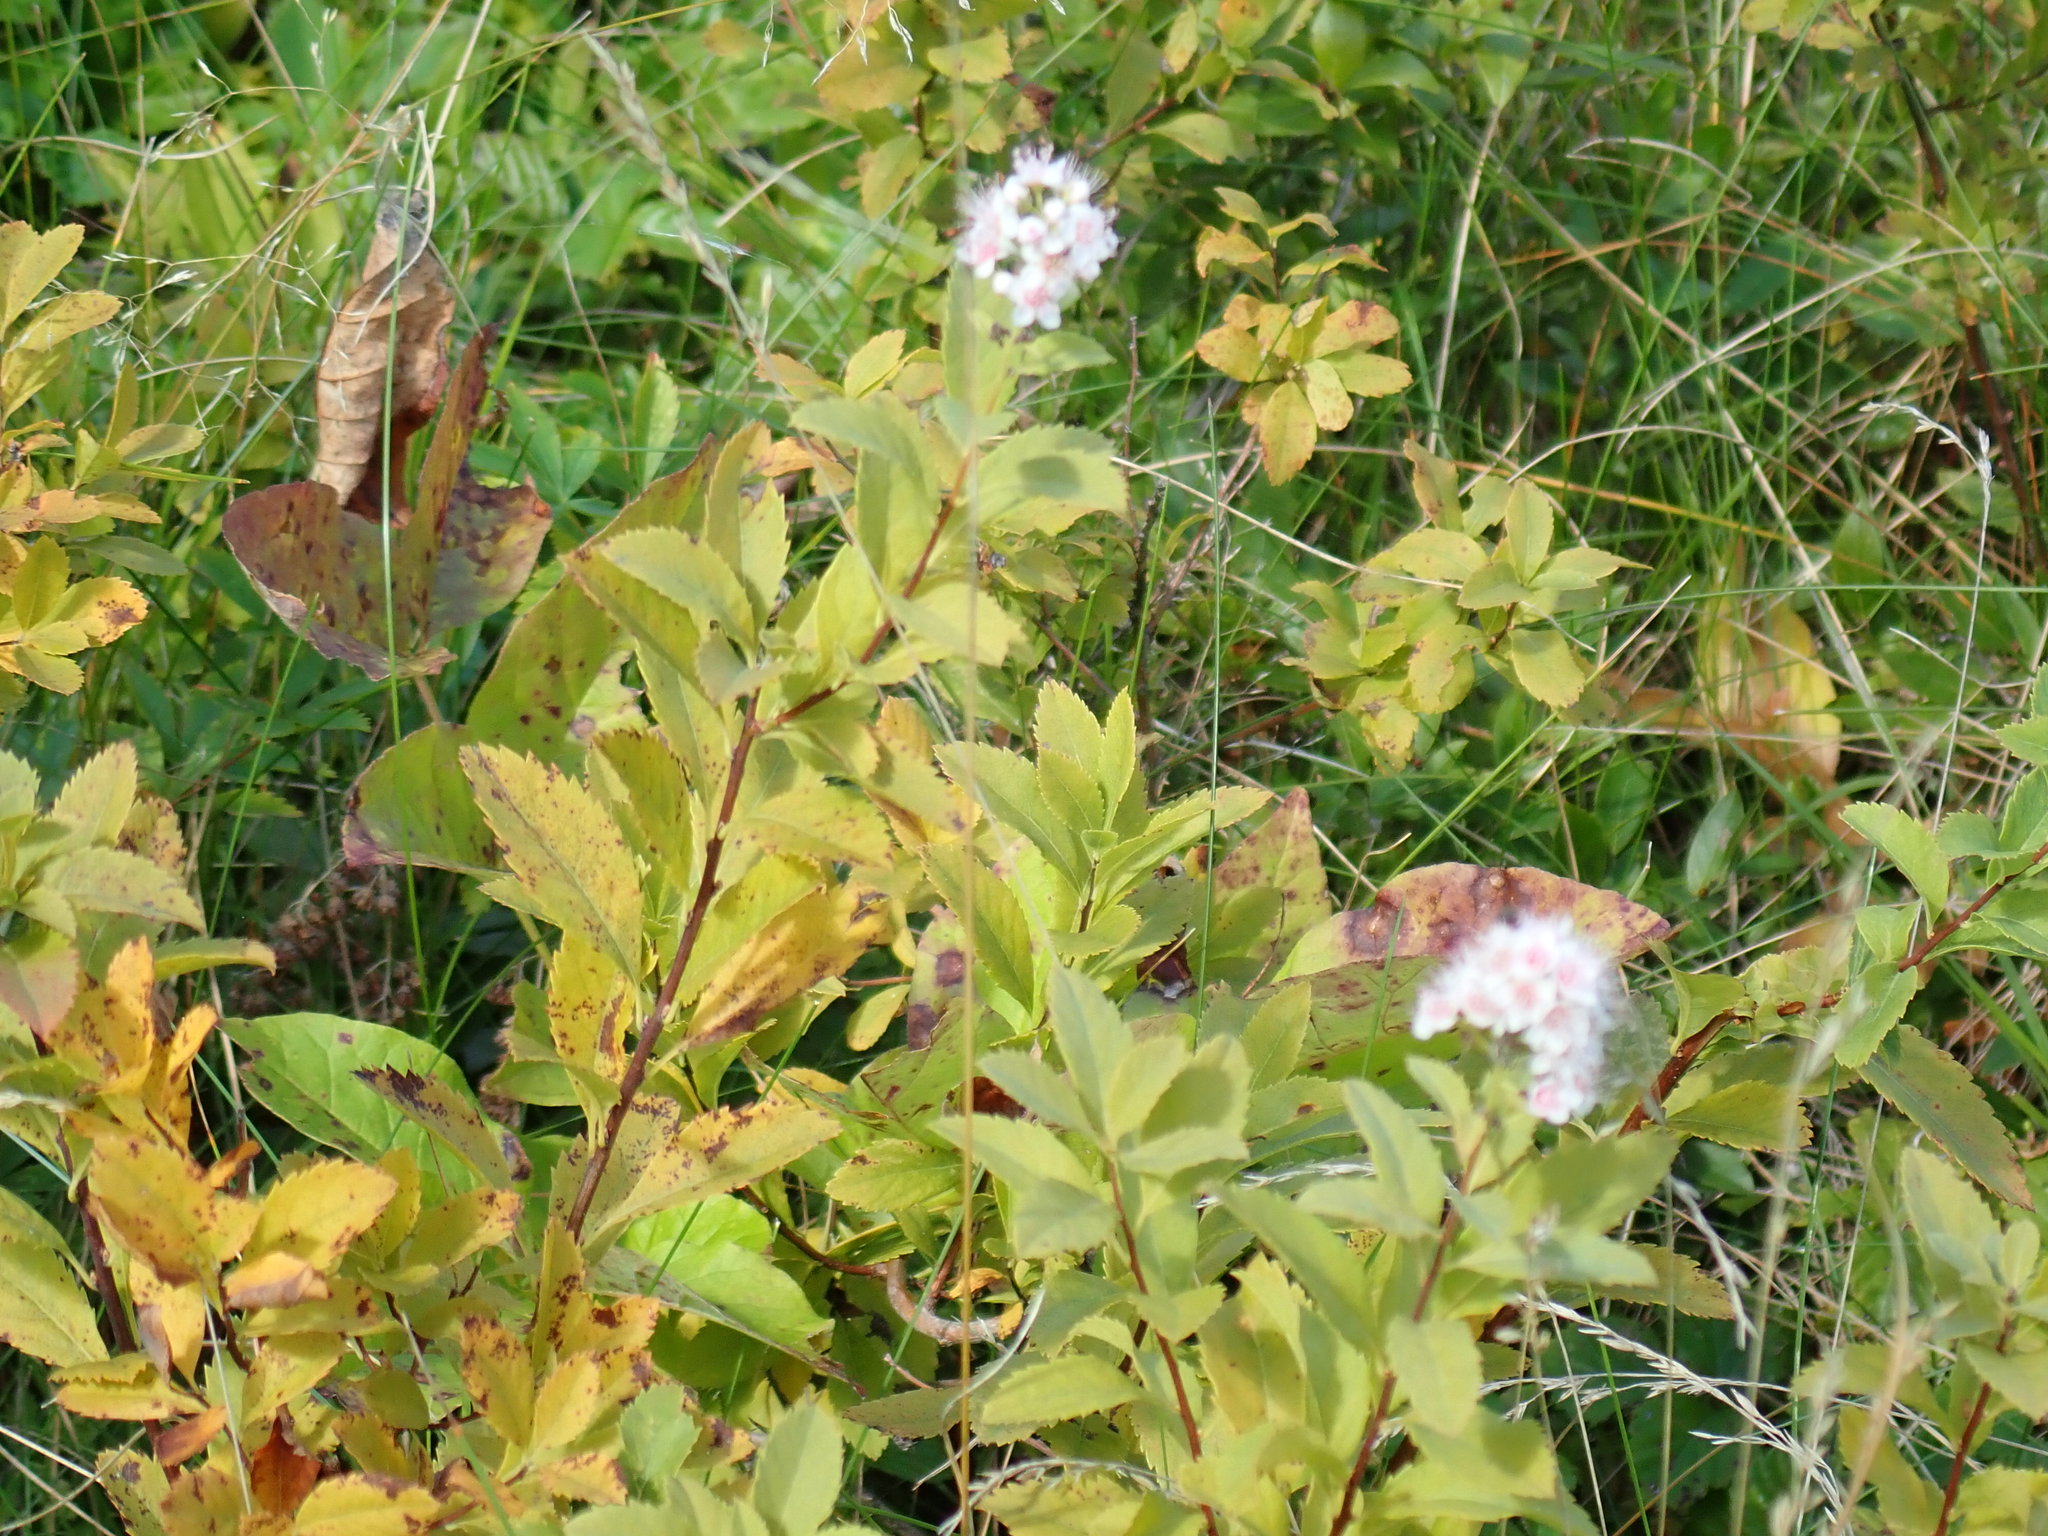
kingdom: Plantae
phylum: Tracheophyta
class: Magnoliopsida
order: Rosales
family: Rosaceae
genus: Spiraea
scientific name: Spiraea alba
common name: Pale bridewort
